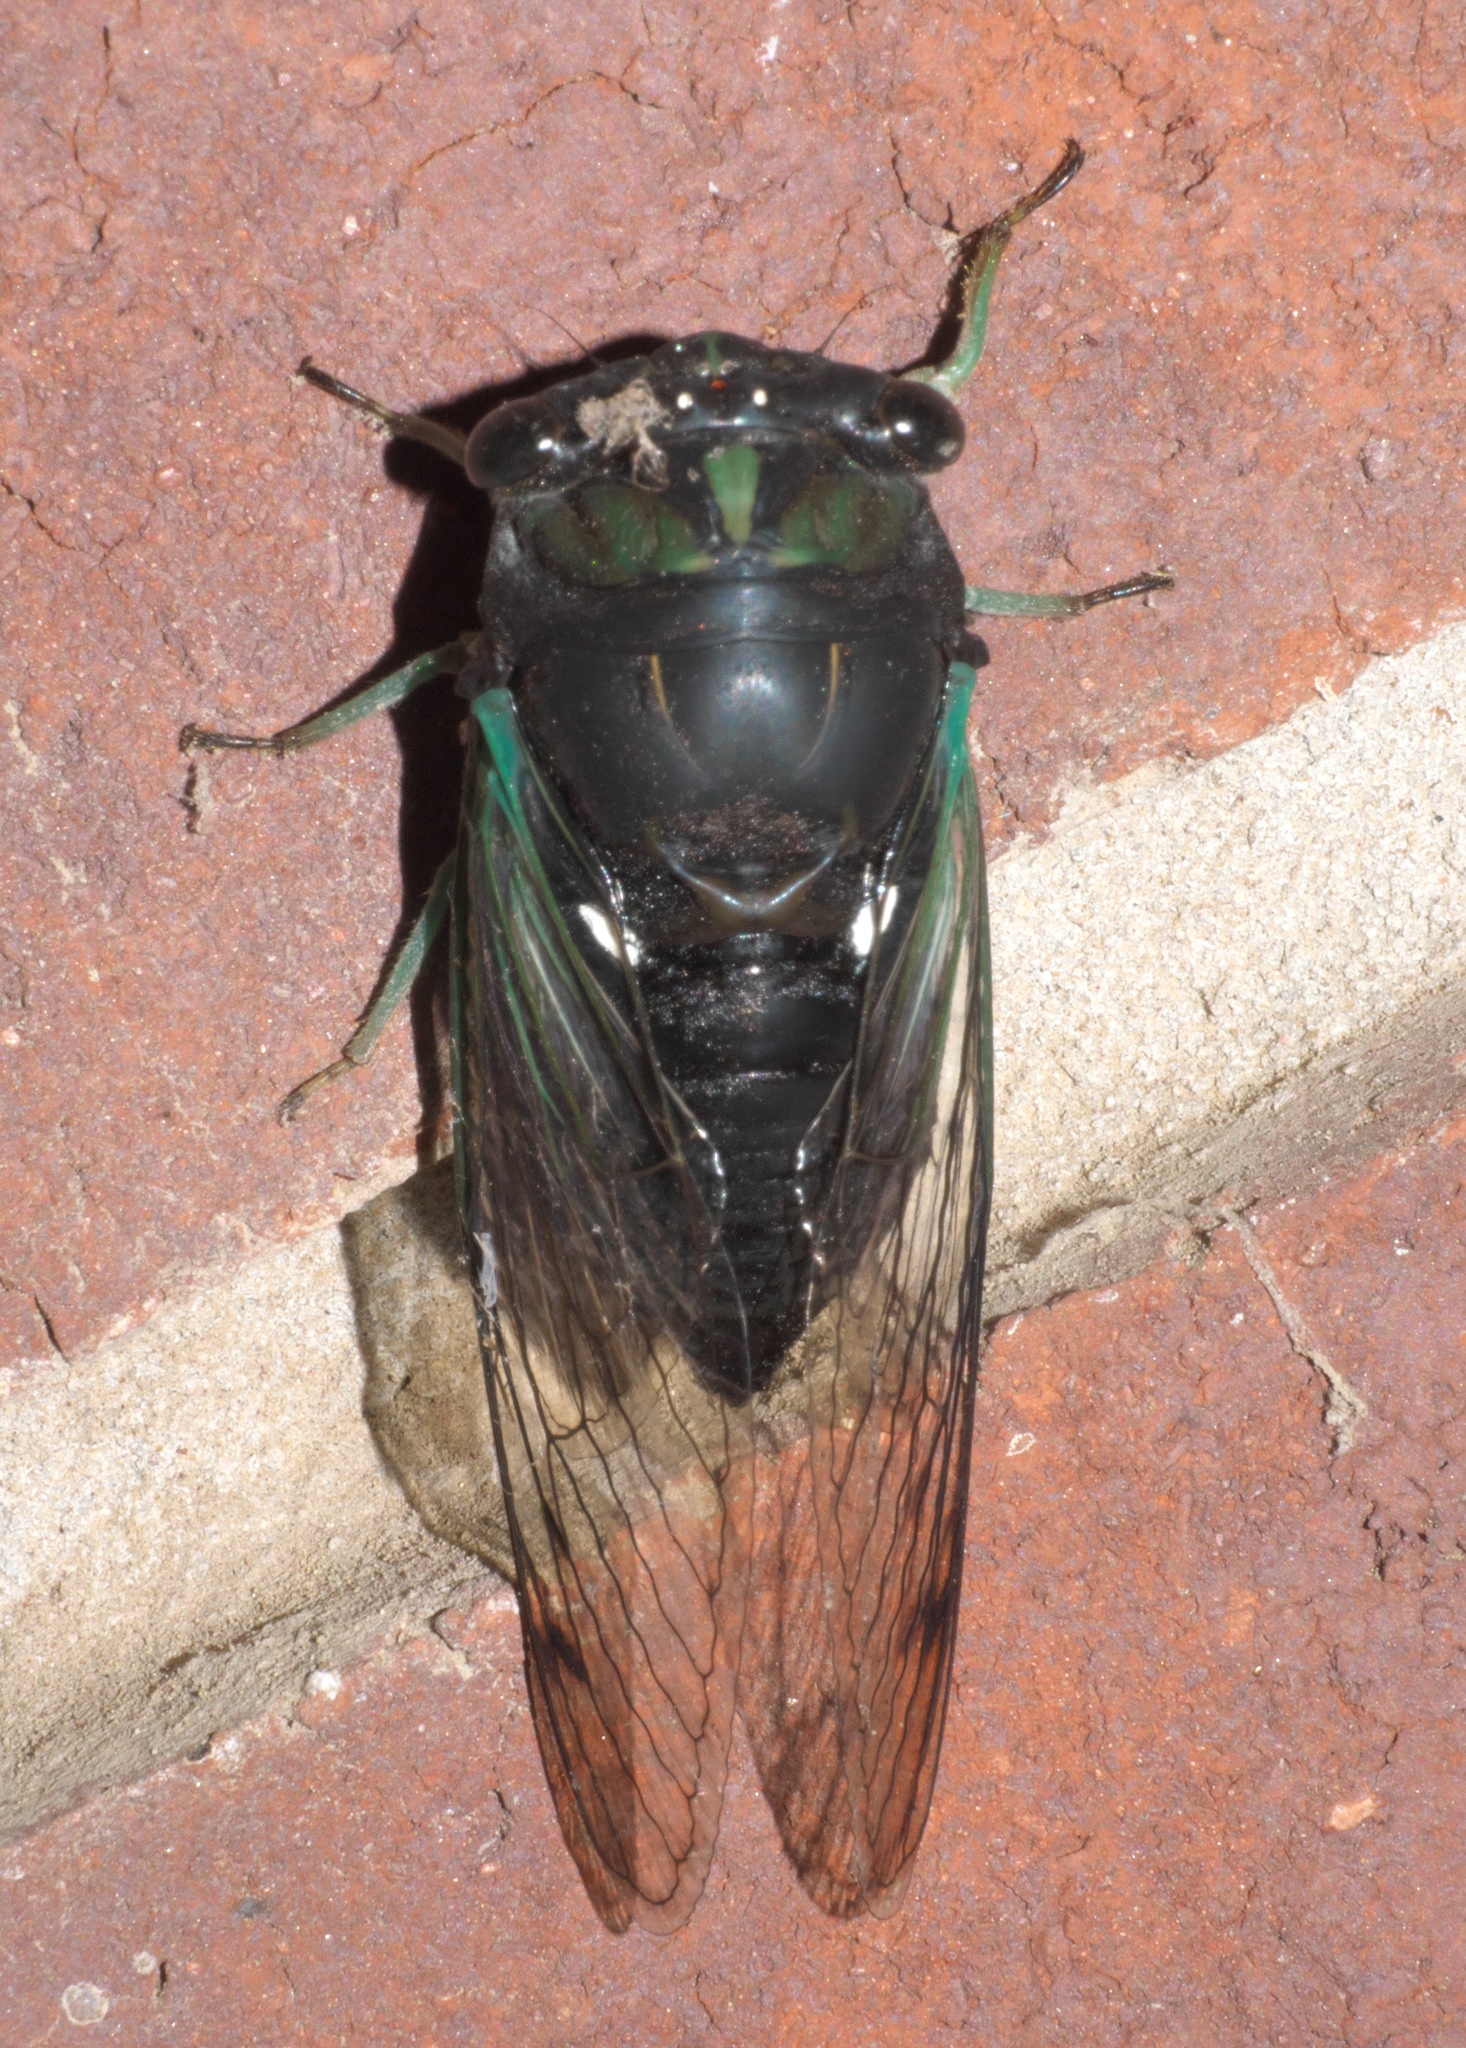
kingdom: Animalia
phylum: Arthropoda
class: Insecta
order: Hemiptera
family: Cicadidae
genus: Neotibicen
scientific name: Neotibicen tibicen
